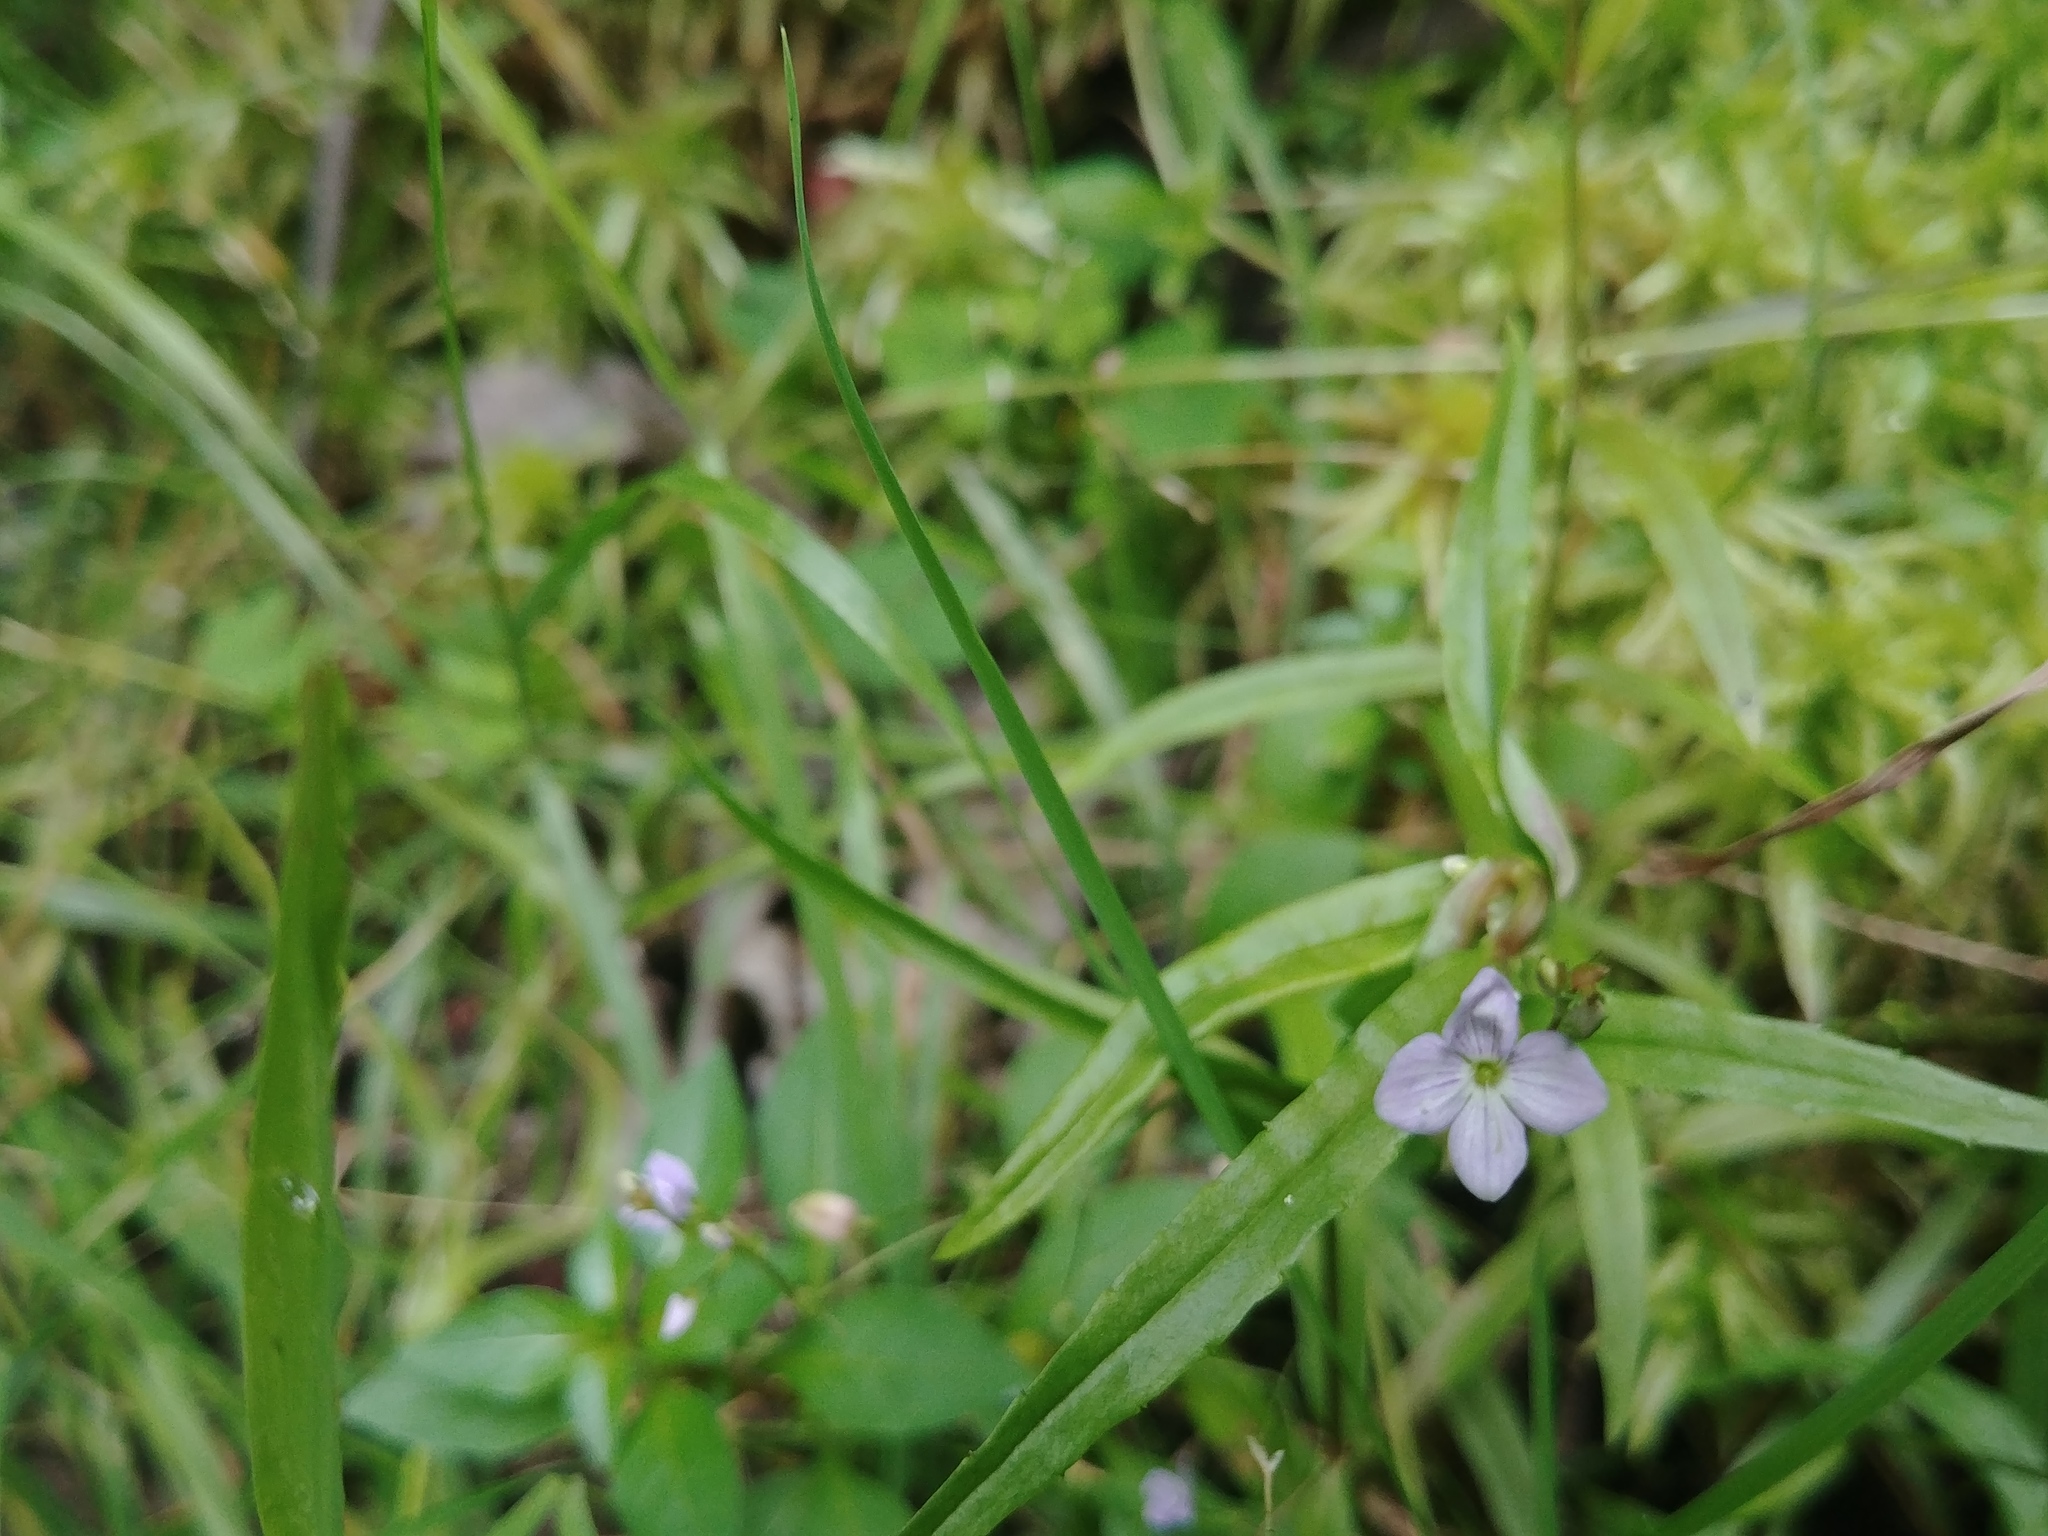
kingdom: Plantae
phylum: Tracheophyta
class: Magnoliopsida
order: Lamiales
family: Plantaginaceae
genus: Veronica
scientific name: Veronica scutellata
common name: Marsh speedwell
